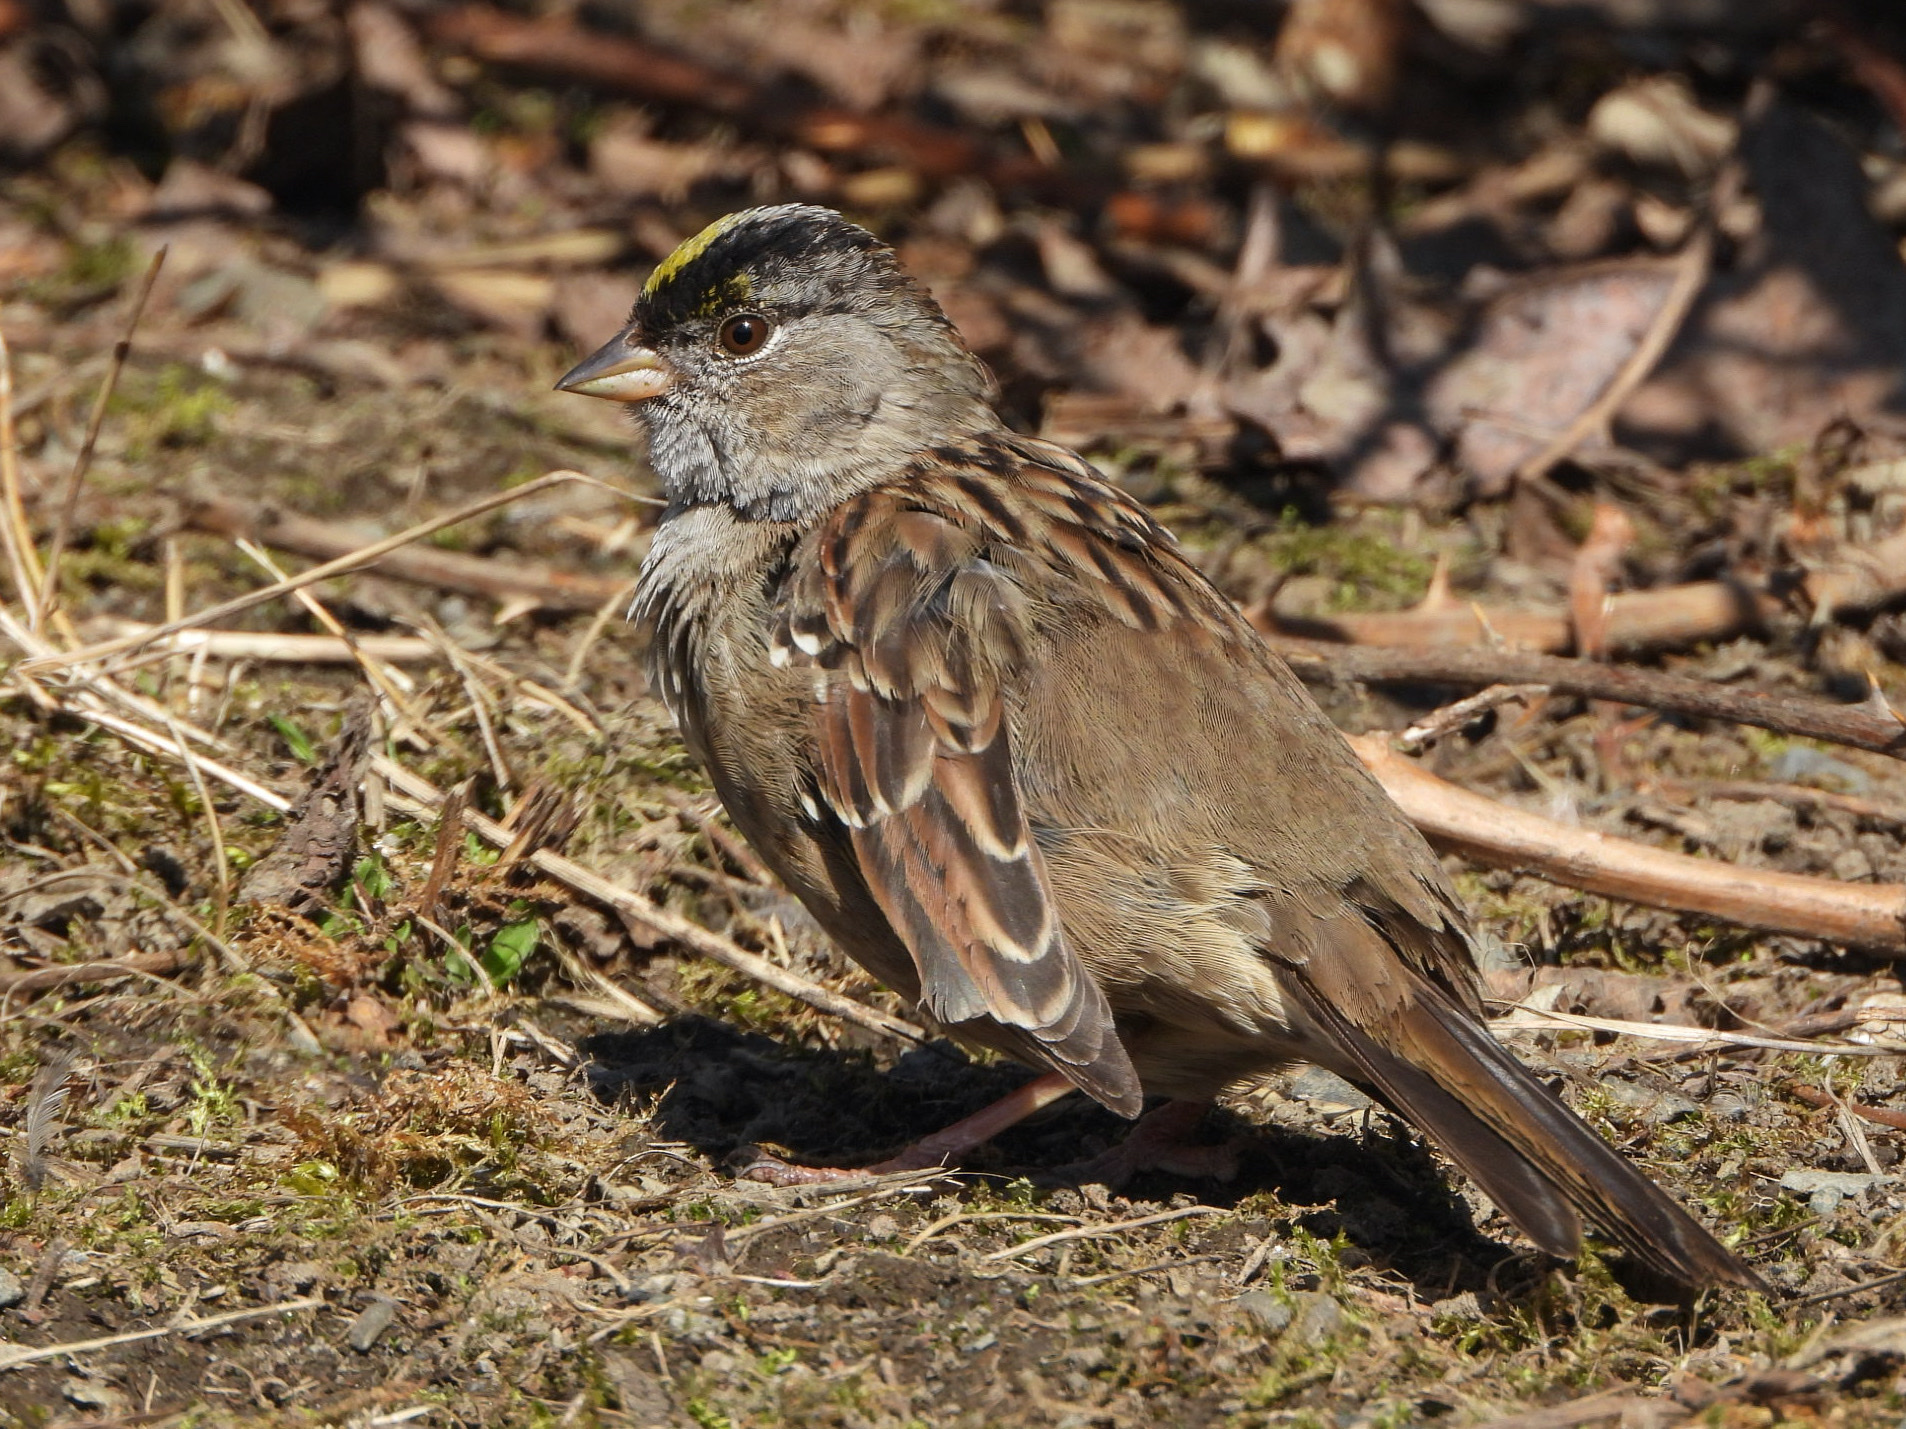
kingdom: Animalia
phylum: Chordata
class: Aves
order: Passeriformes
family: Passerellidae
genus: Zonotrichia
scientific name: Zonotrichia atricapilla
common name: Golden-crowned sparrow
